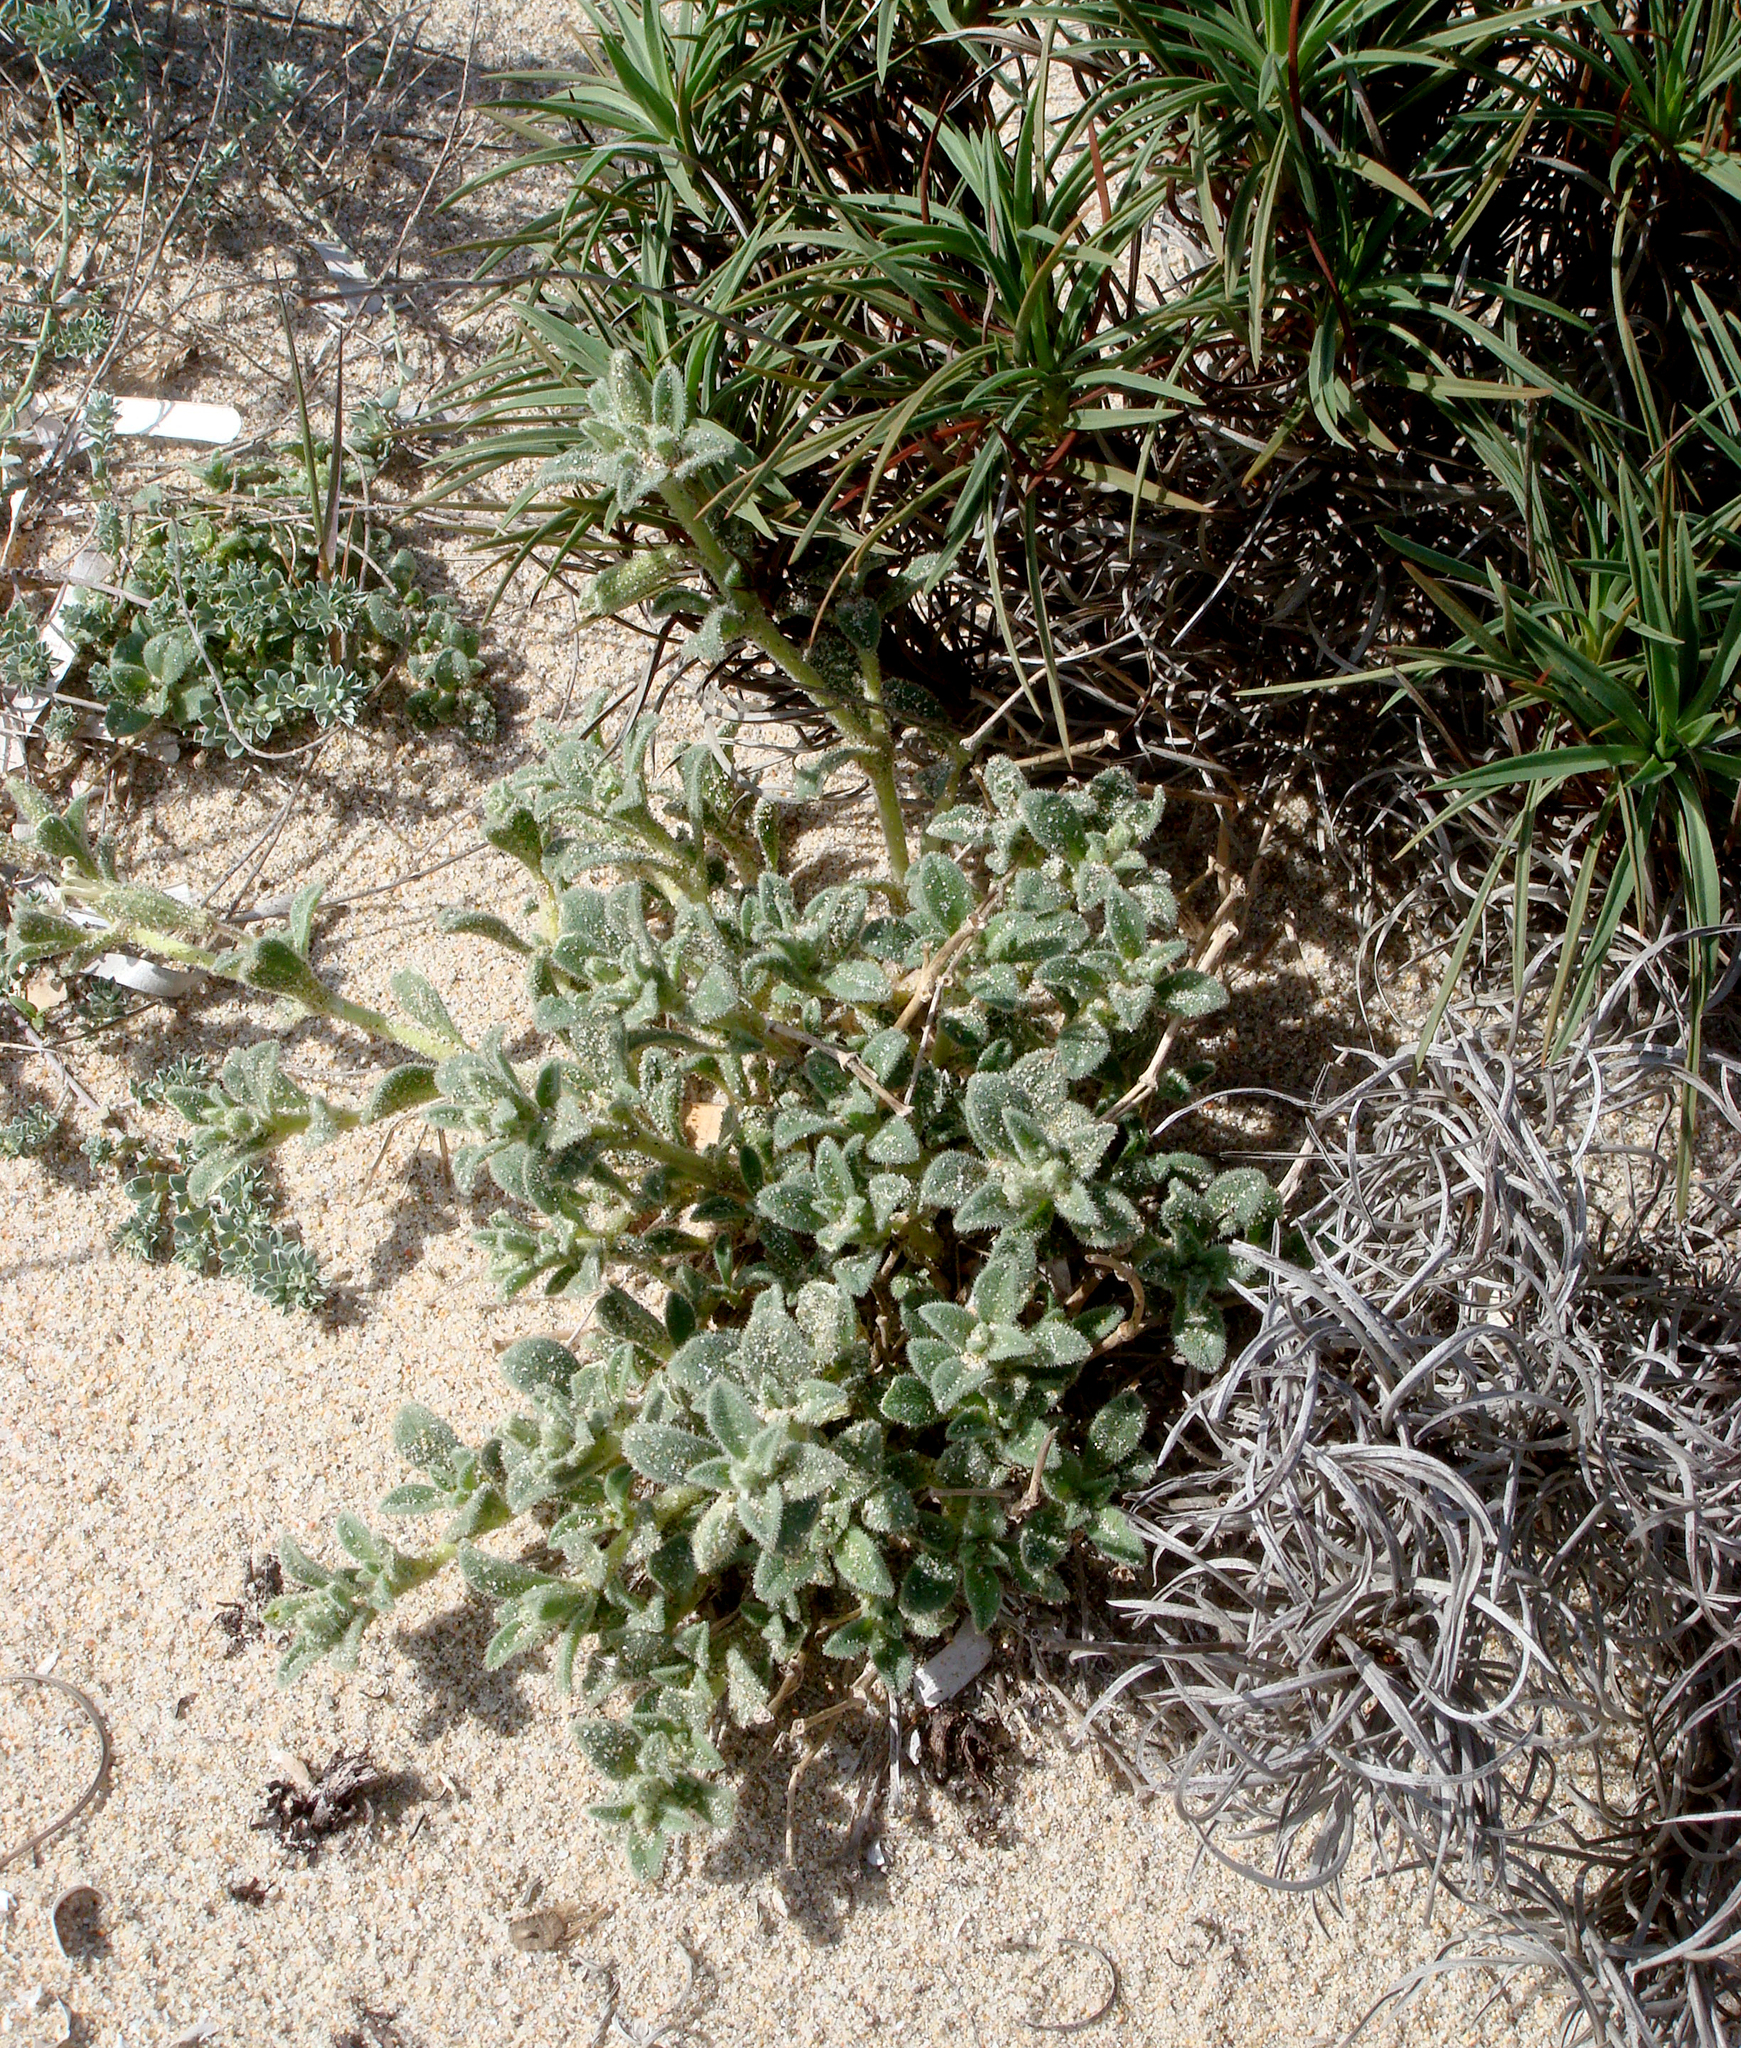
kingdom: Plantae
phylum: Tracheophyta
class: Magnoliopsida
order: Caryophyllales
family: Caryophyllaceae
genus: Silene
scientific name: Silene succulenta
